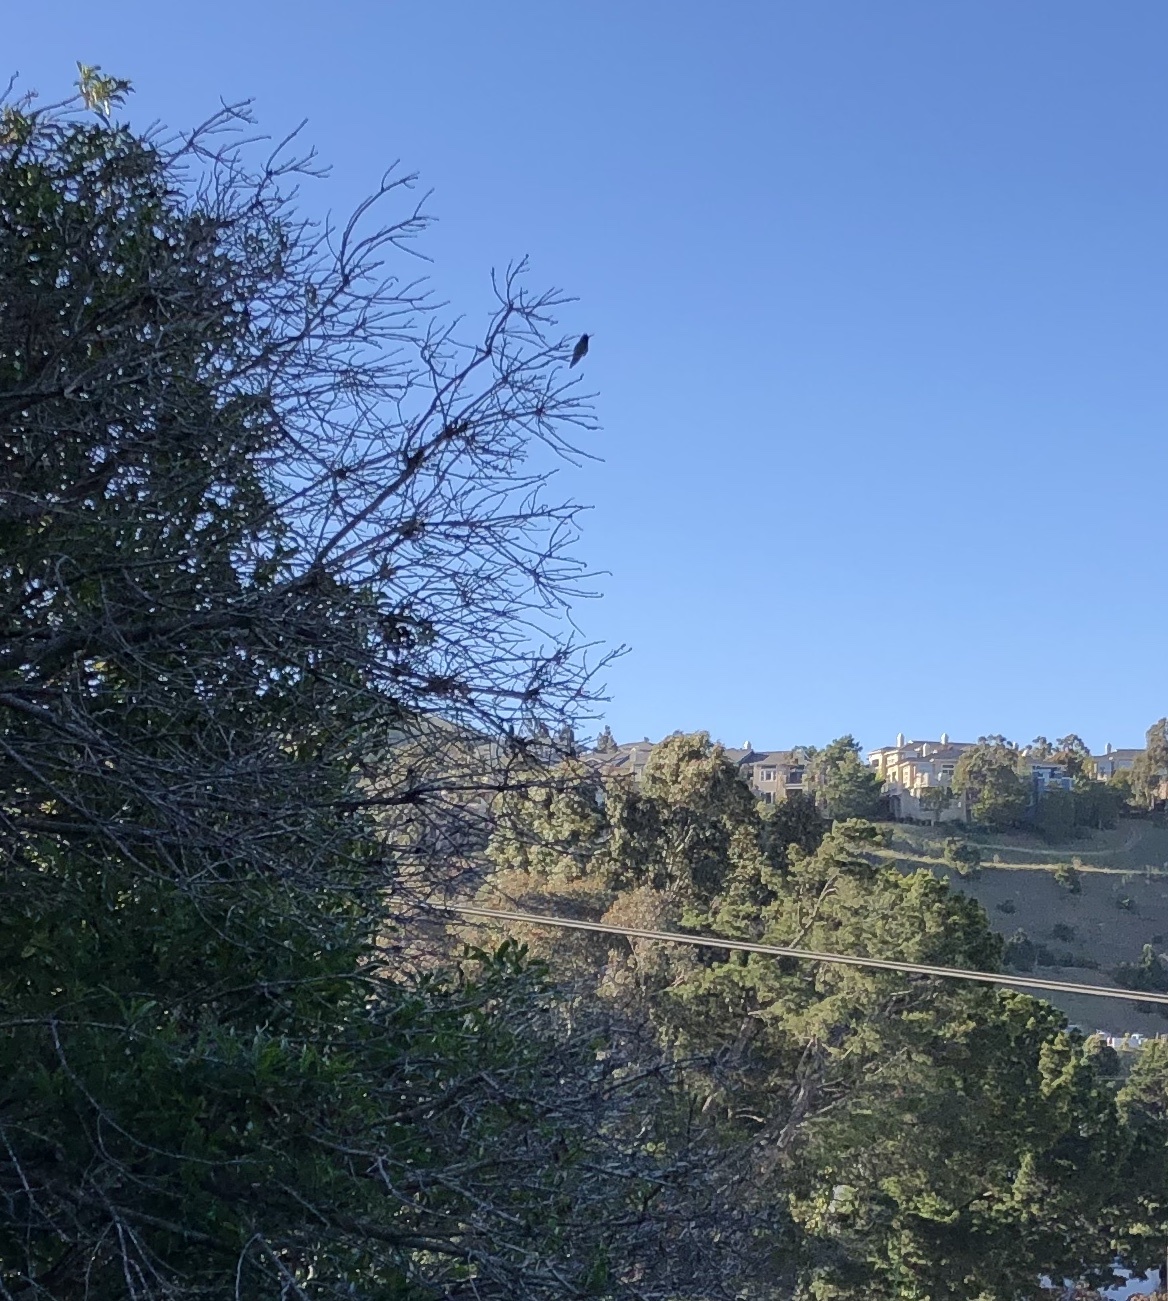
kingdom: Animalia
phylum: Chordata
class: Aves
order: Apodiformes
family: Trochilidae
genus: Calypte
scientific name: Calypte anna
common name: Anna's hummingbird
